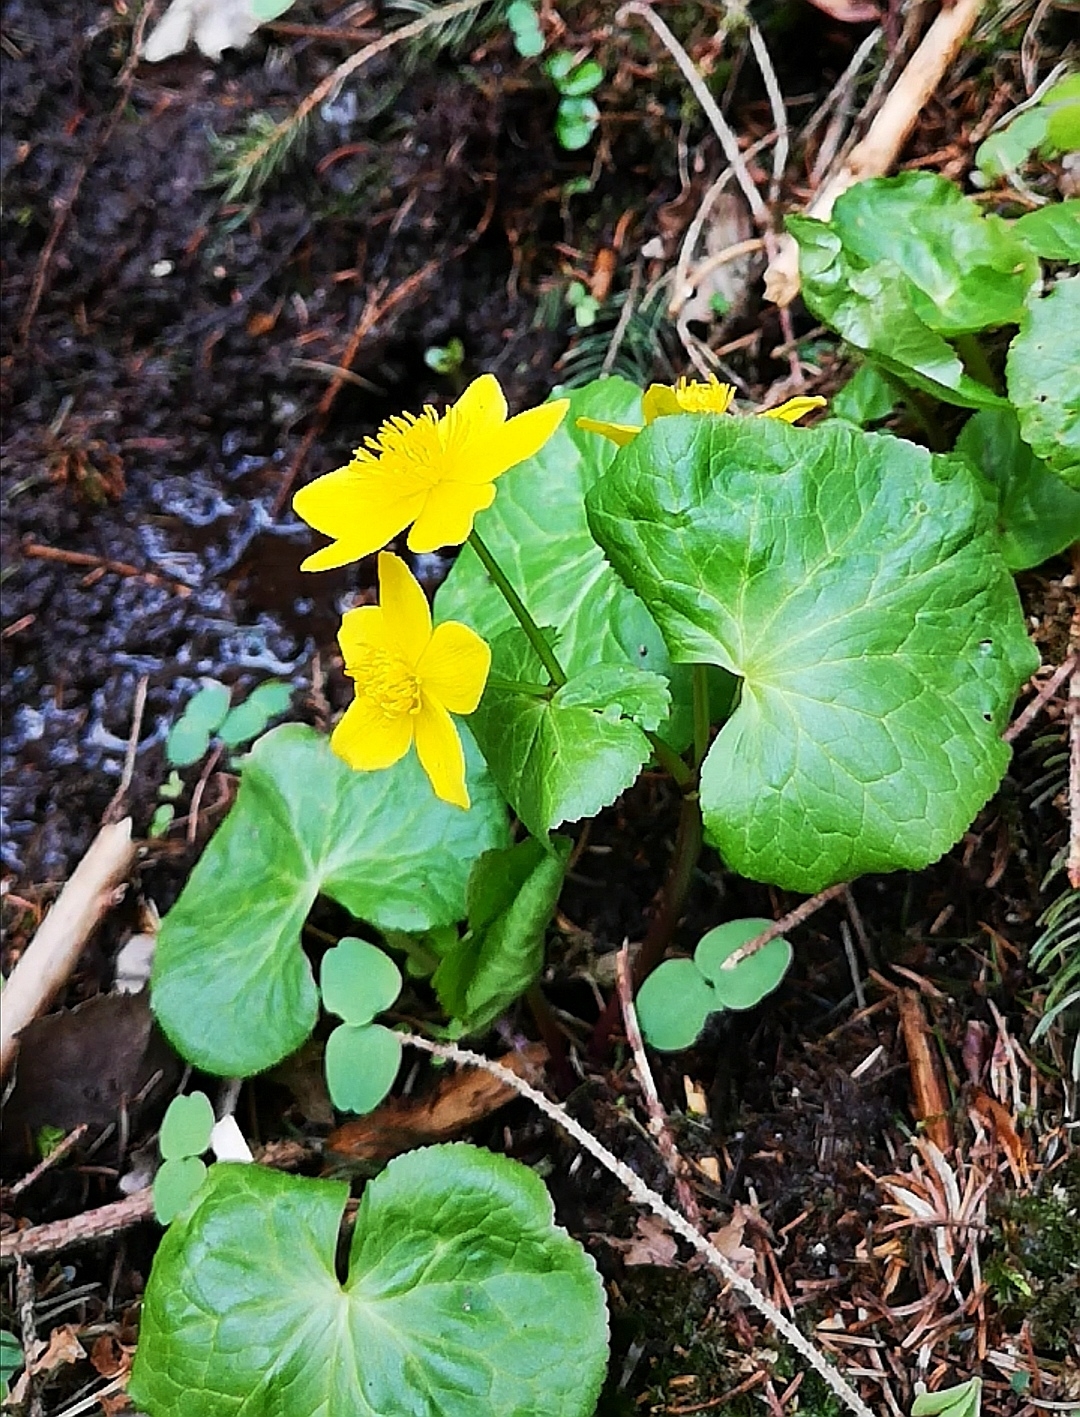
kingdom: Plantae
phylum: Tracheophyta
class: Magnoliopsida
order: Ranunculales
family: Ranunculaceae
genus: Caltha
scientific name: Caltha palustris
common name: Marsh marigold
